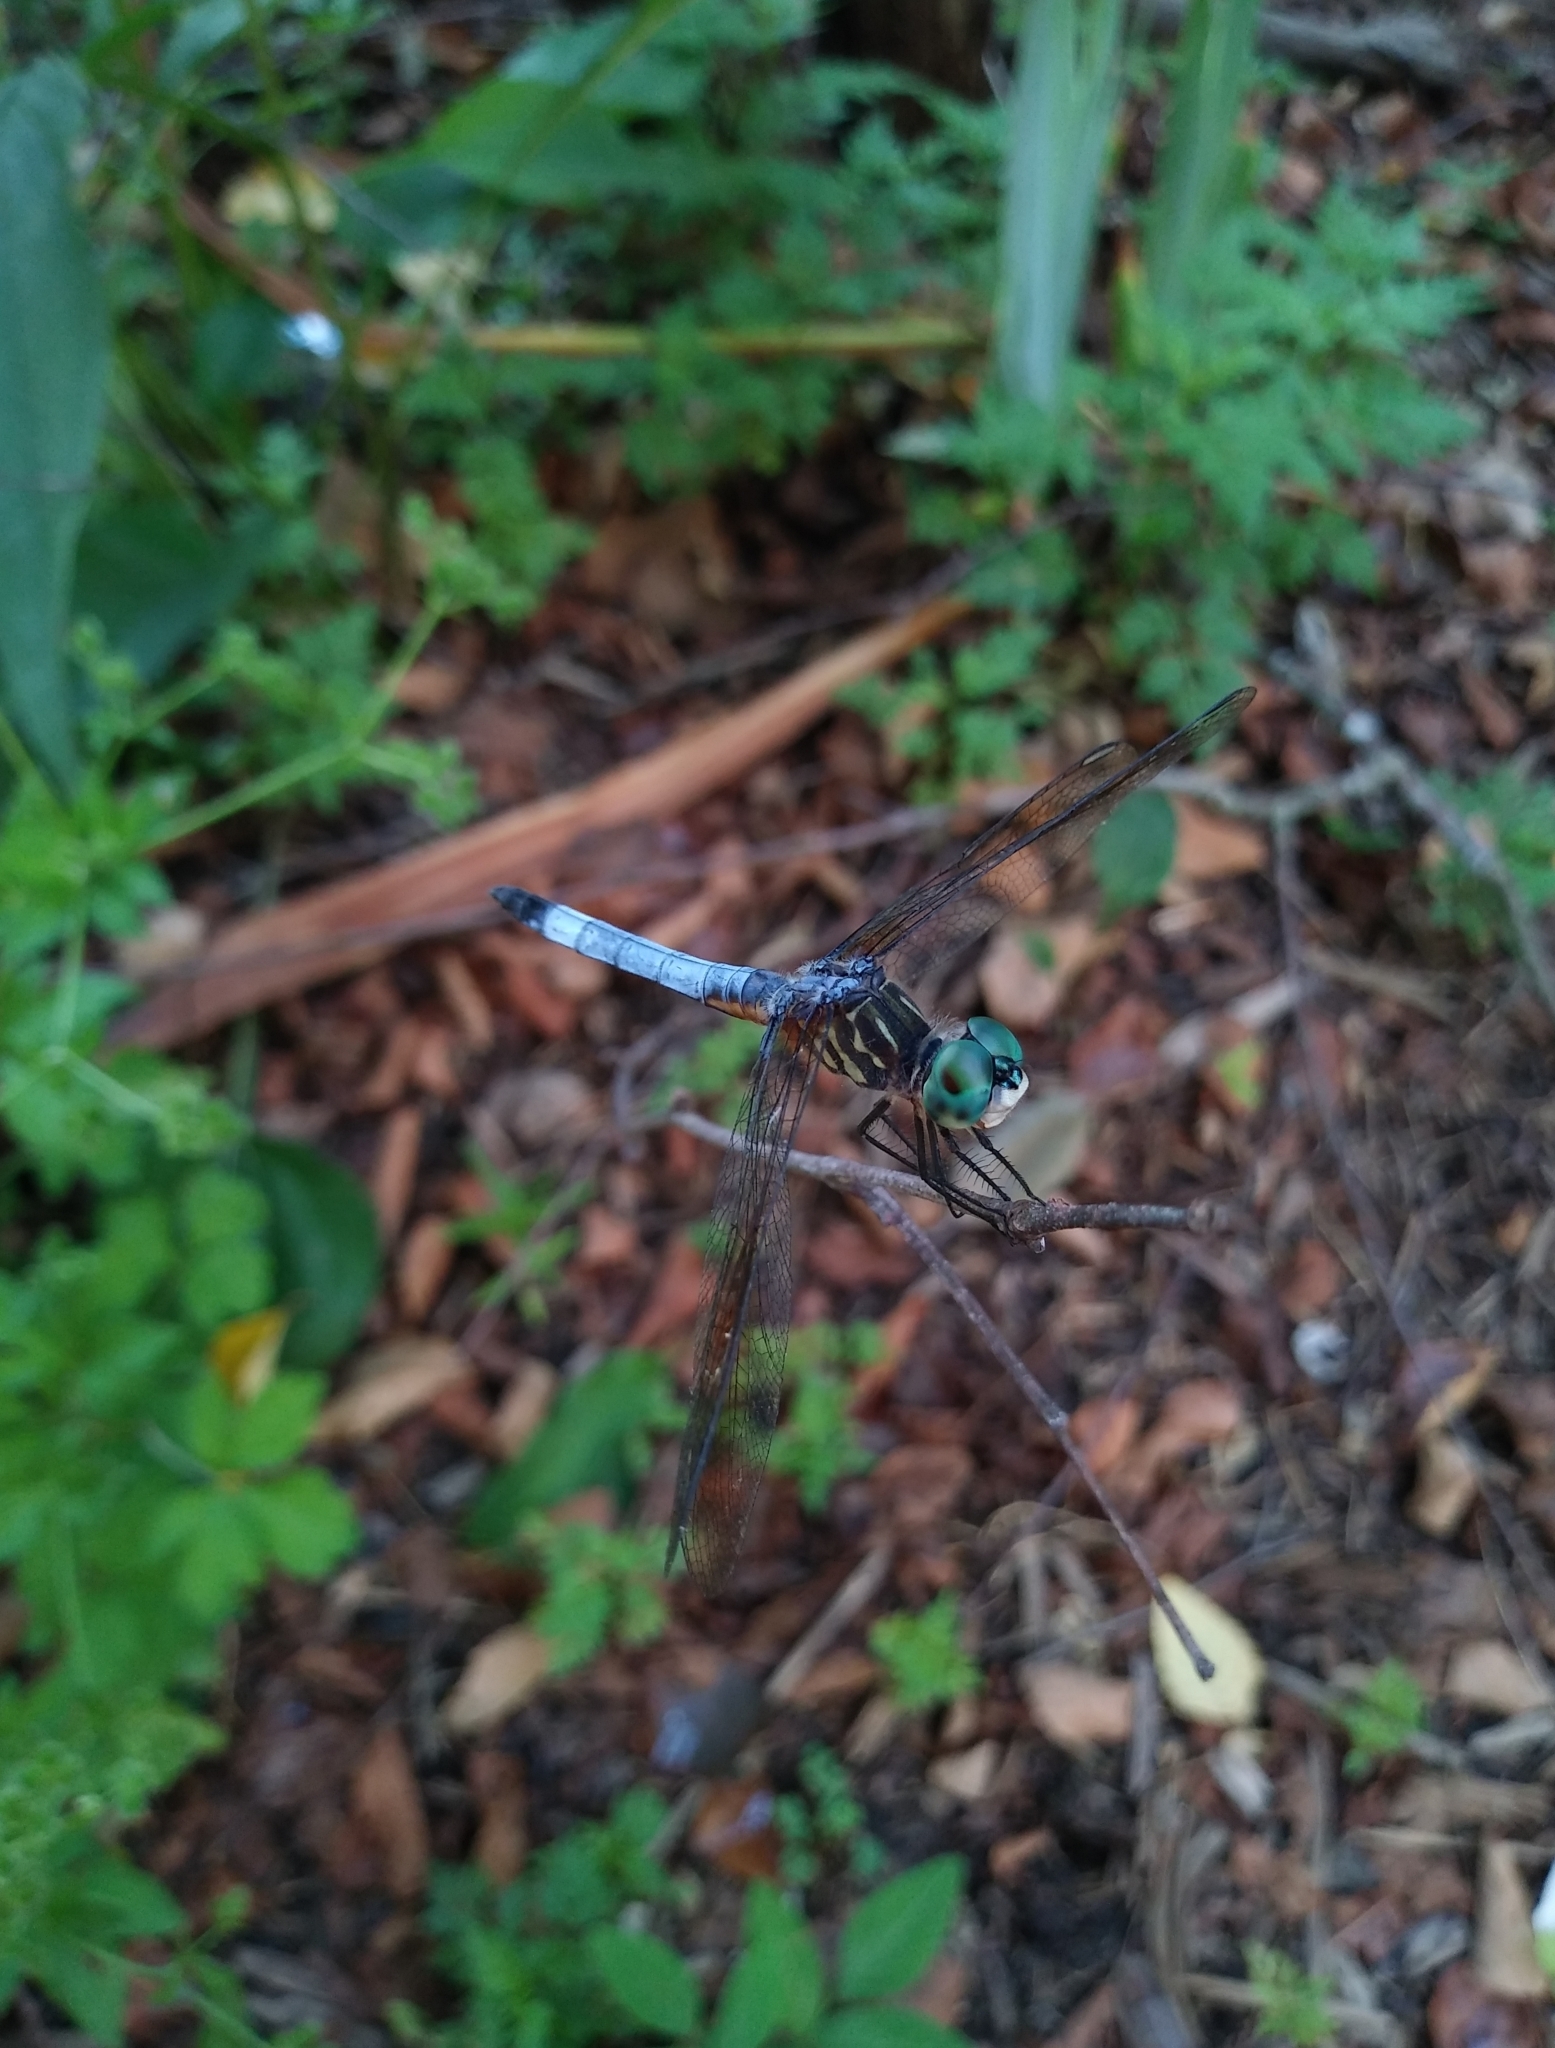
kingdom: Animalia
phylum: Arthropoda
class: Insecta
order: Odonata
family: Libellulidae
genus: Pachydiplax
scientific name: Pachydiplax longipennis
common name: Blue dasher
